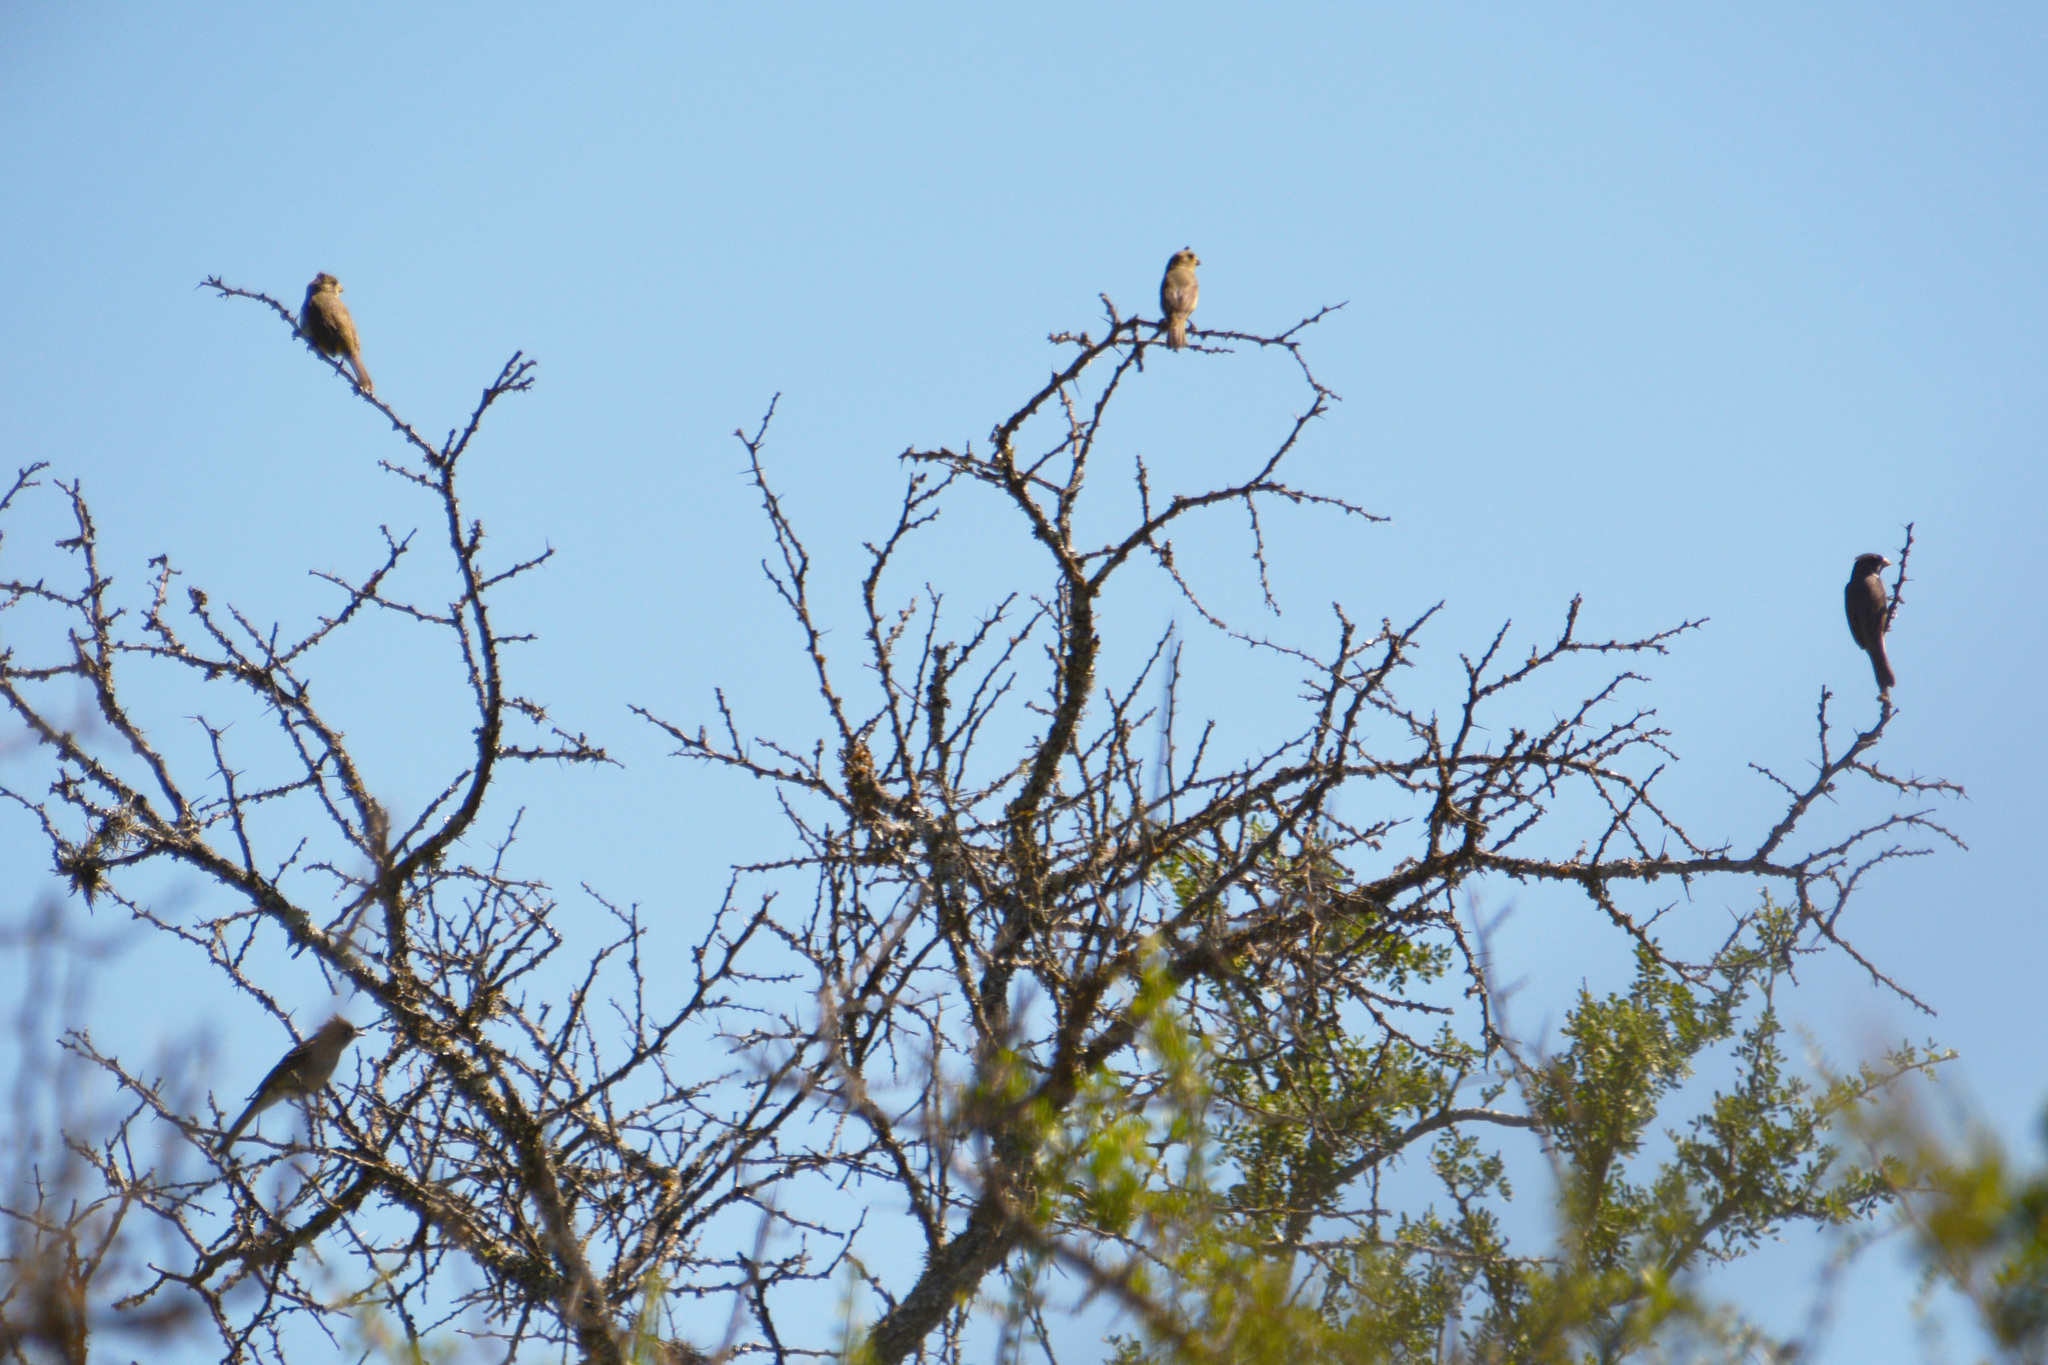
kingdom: Animalia
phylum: Chordata
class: Aves
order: Passeriformes
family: Thraupidae
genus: Sporophila
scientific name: Sporophila caerulescens
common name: Double-collared seedeater
